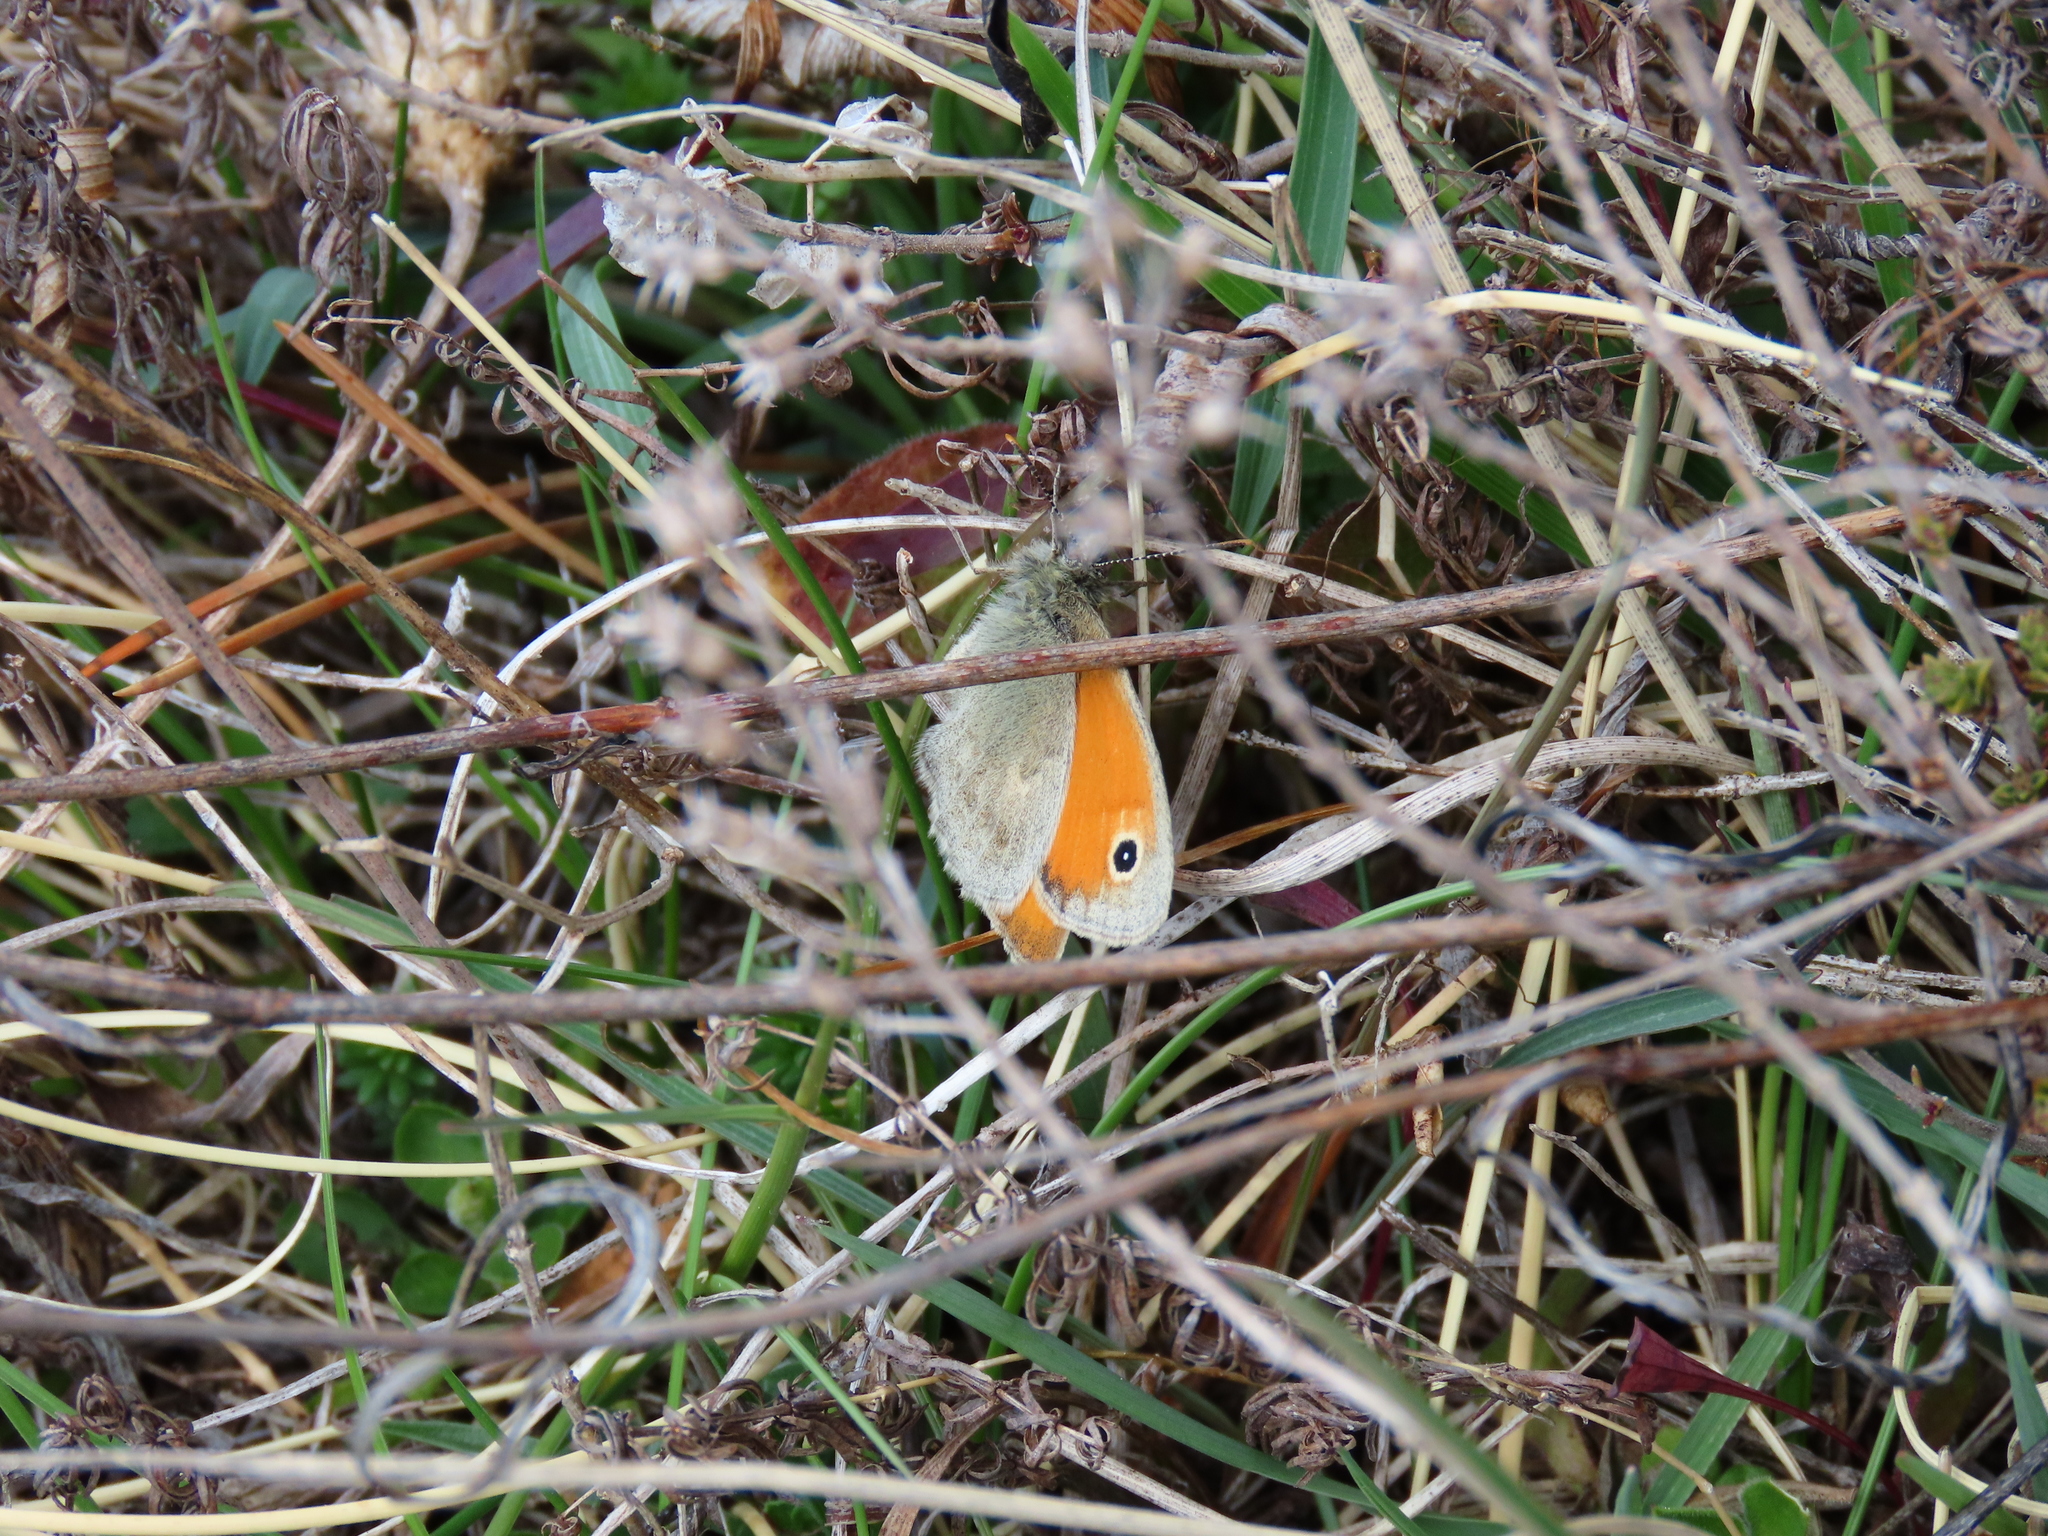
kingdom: Animalia
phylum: Arthropoda
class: Insecta
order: Lepidoptera
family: Nymphalidae
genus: Coenonympha
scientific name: Coenonympha pamphilus
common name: Small heath
